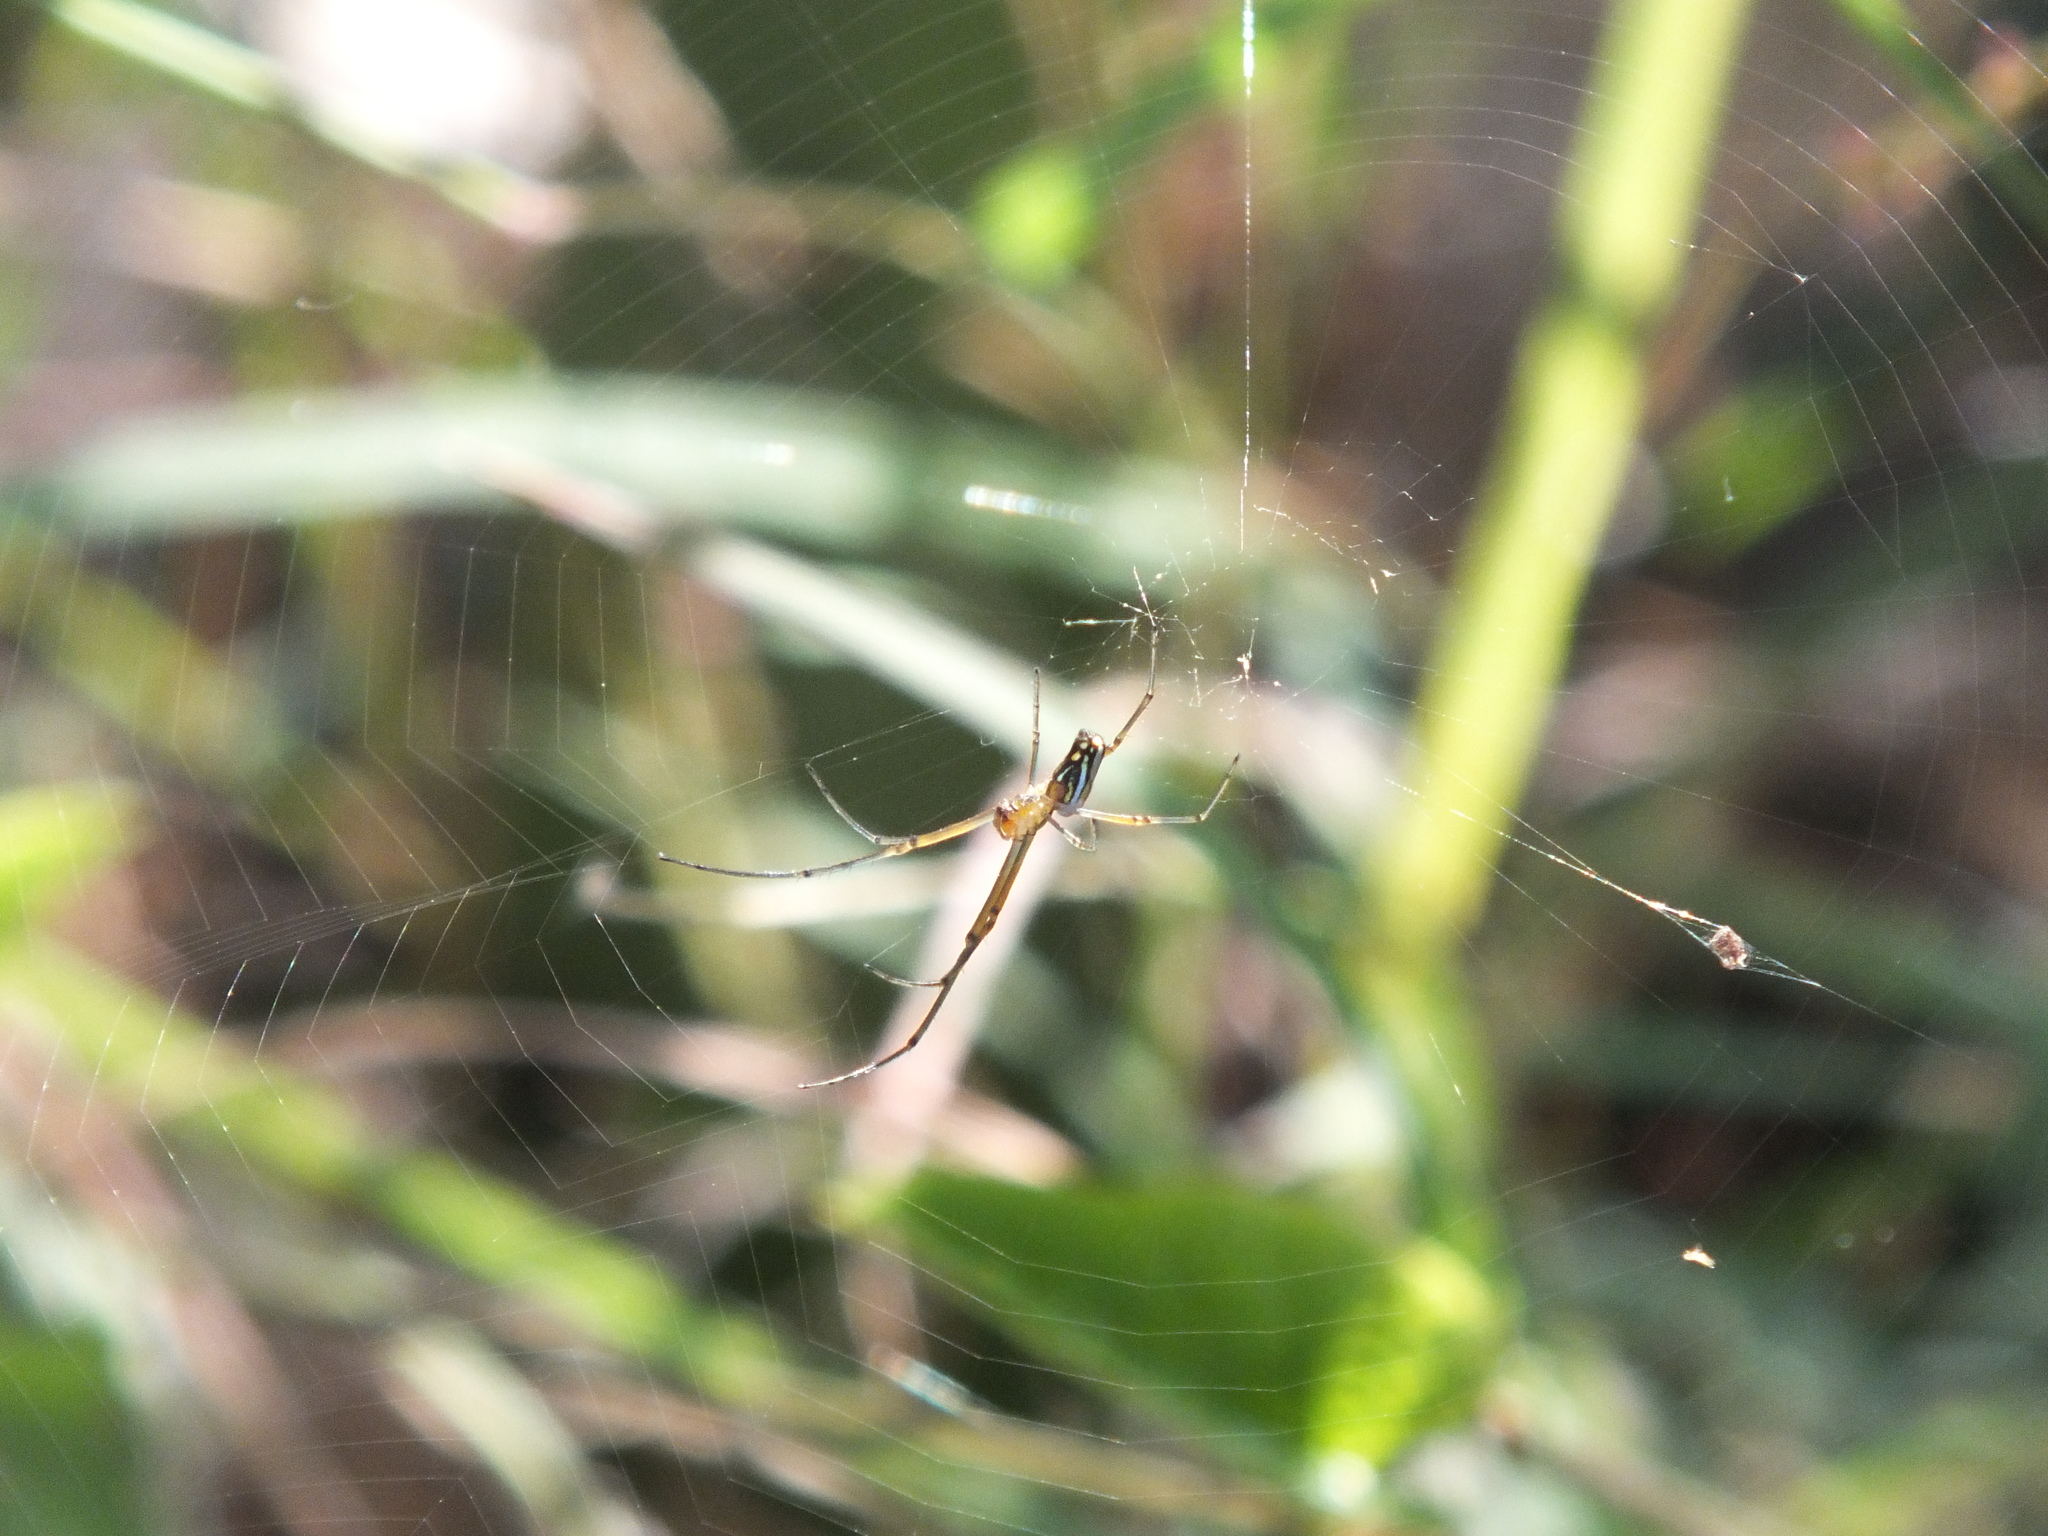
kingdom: Animalia
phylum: Arthropoda
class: Arachnida
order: Araneae
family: Tetragnathidae
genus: Leucauge
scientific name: Leucauge argyra
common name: Longjawed orb weavers
